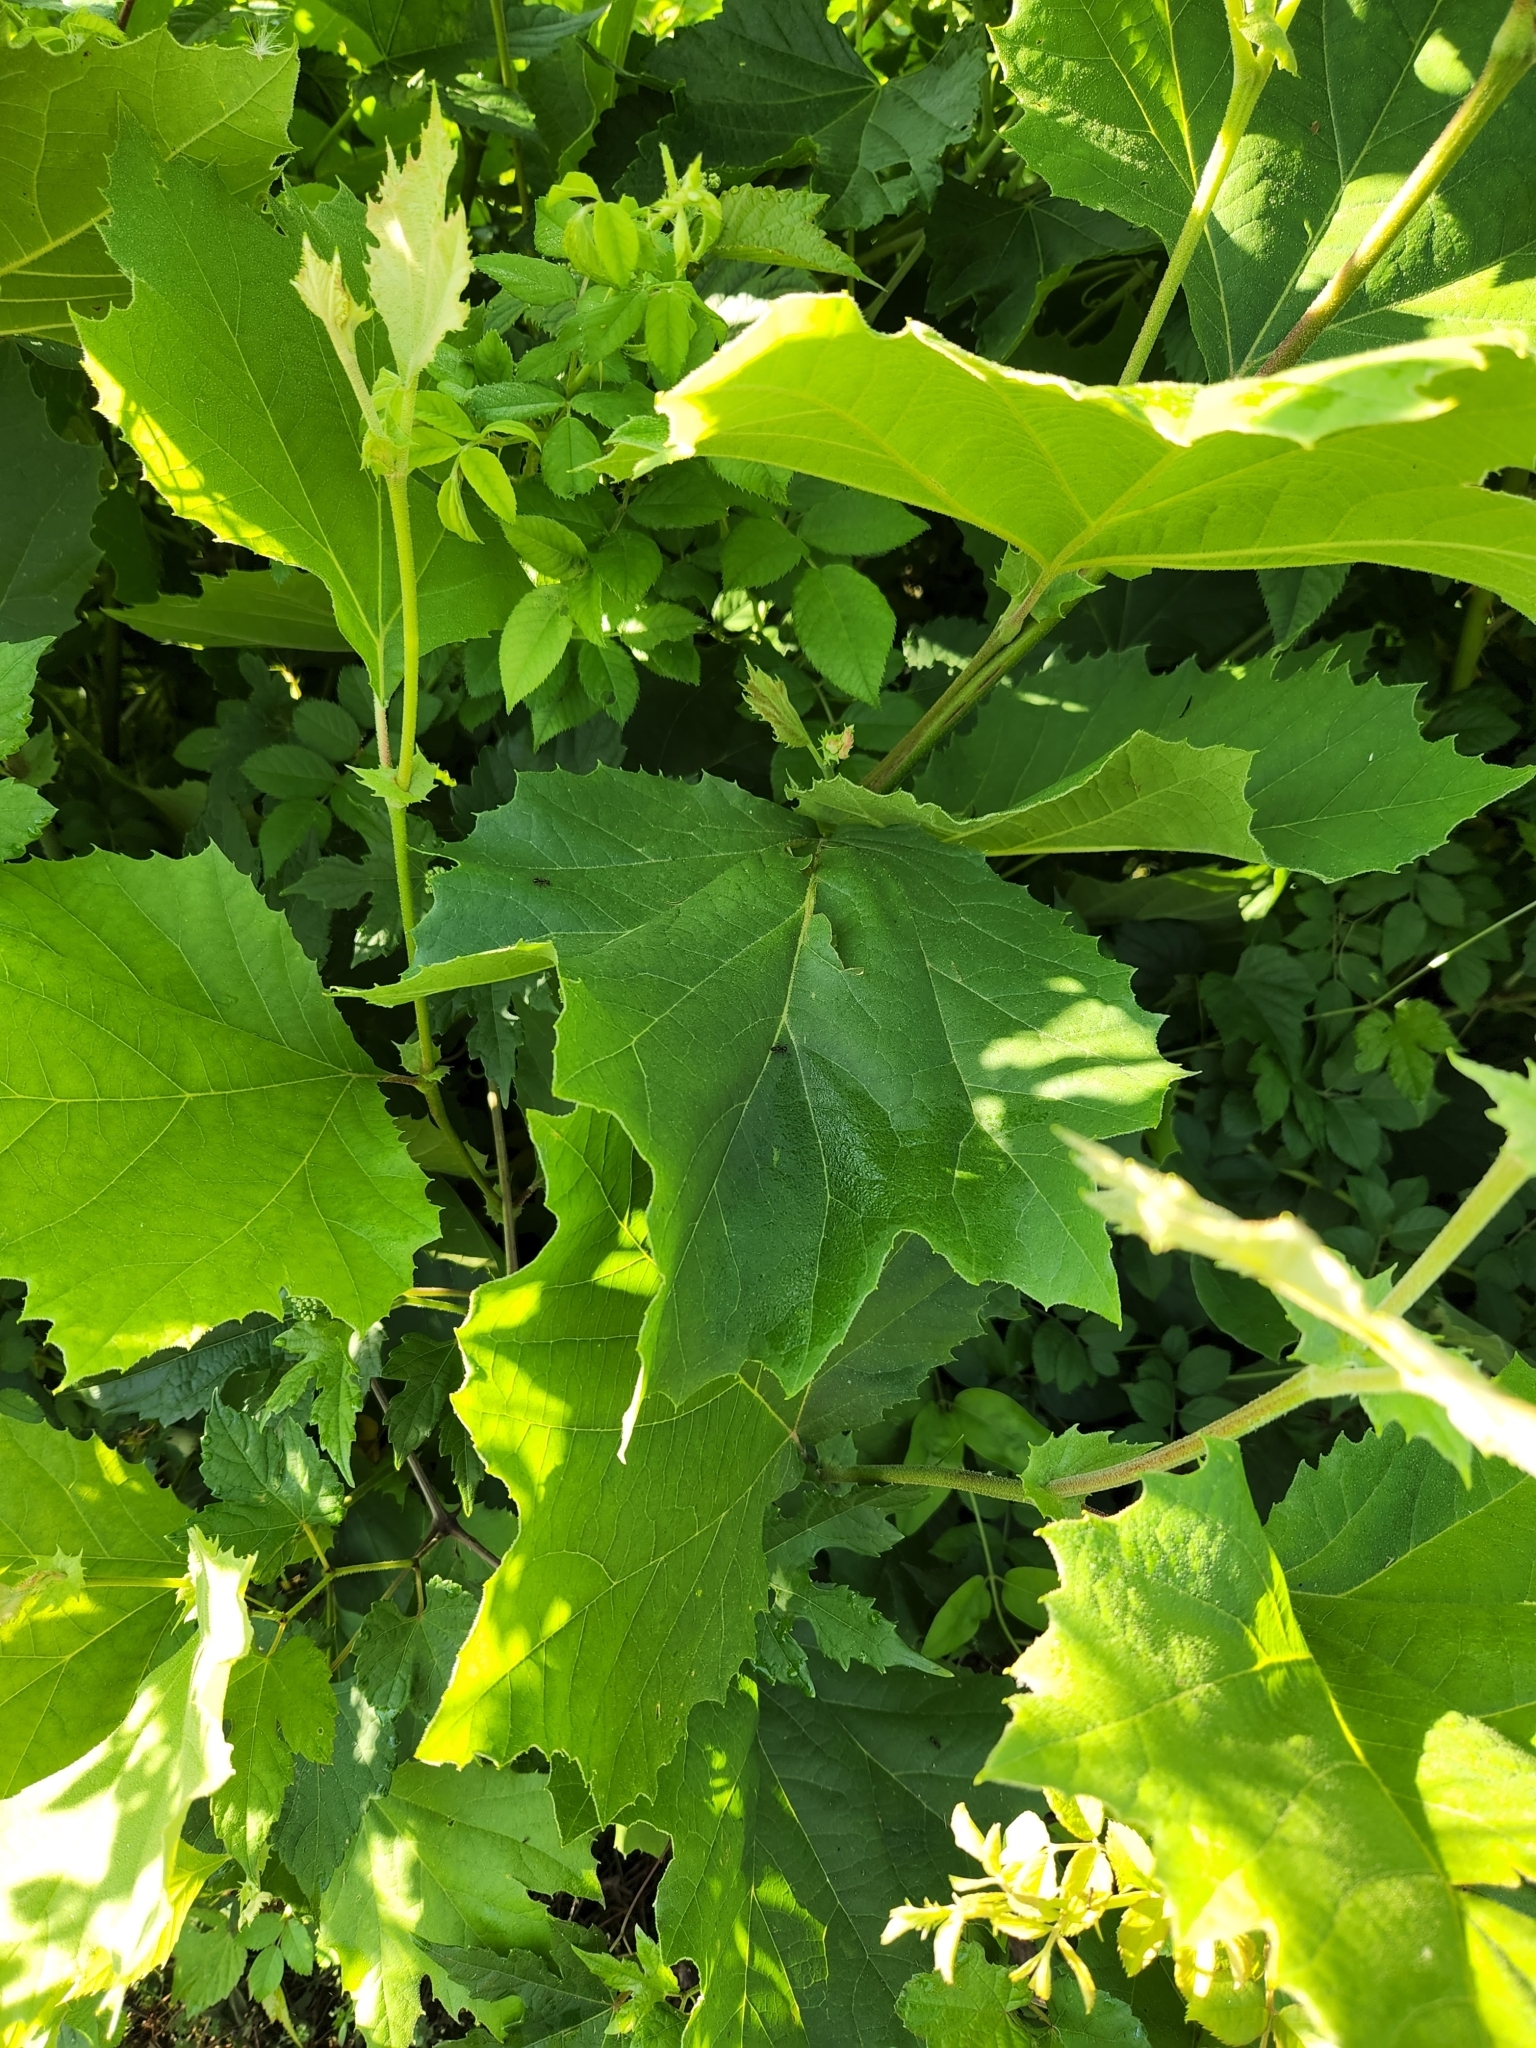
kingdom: Plantae
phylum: Tracheophyta
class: Magnoliopsida
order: Proteales
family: Platanaceae
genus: Platanus
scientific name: Platanus occidentalis
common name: American sycamore
